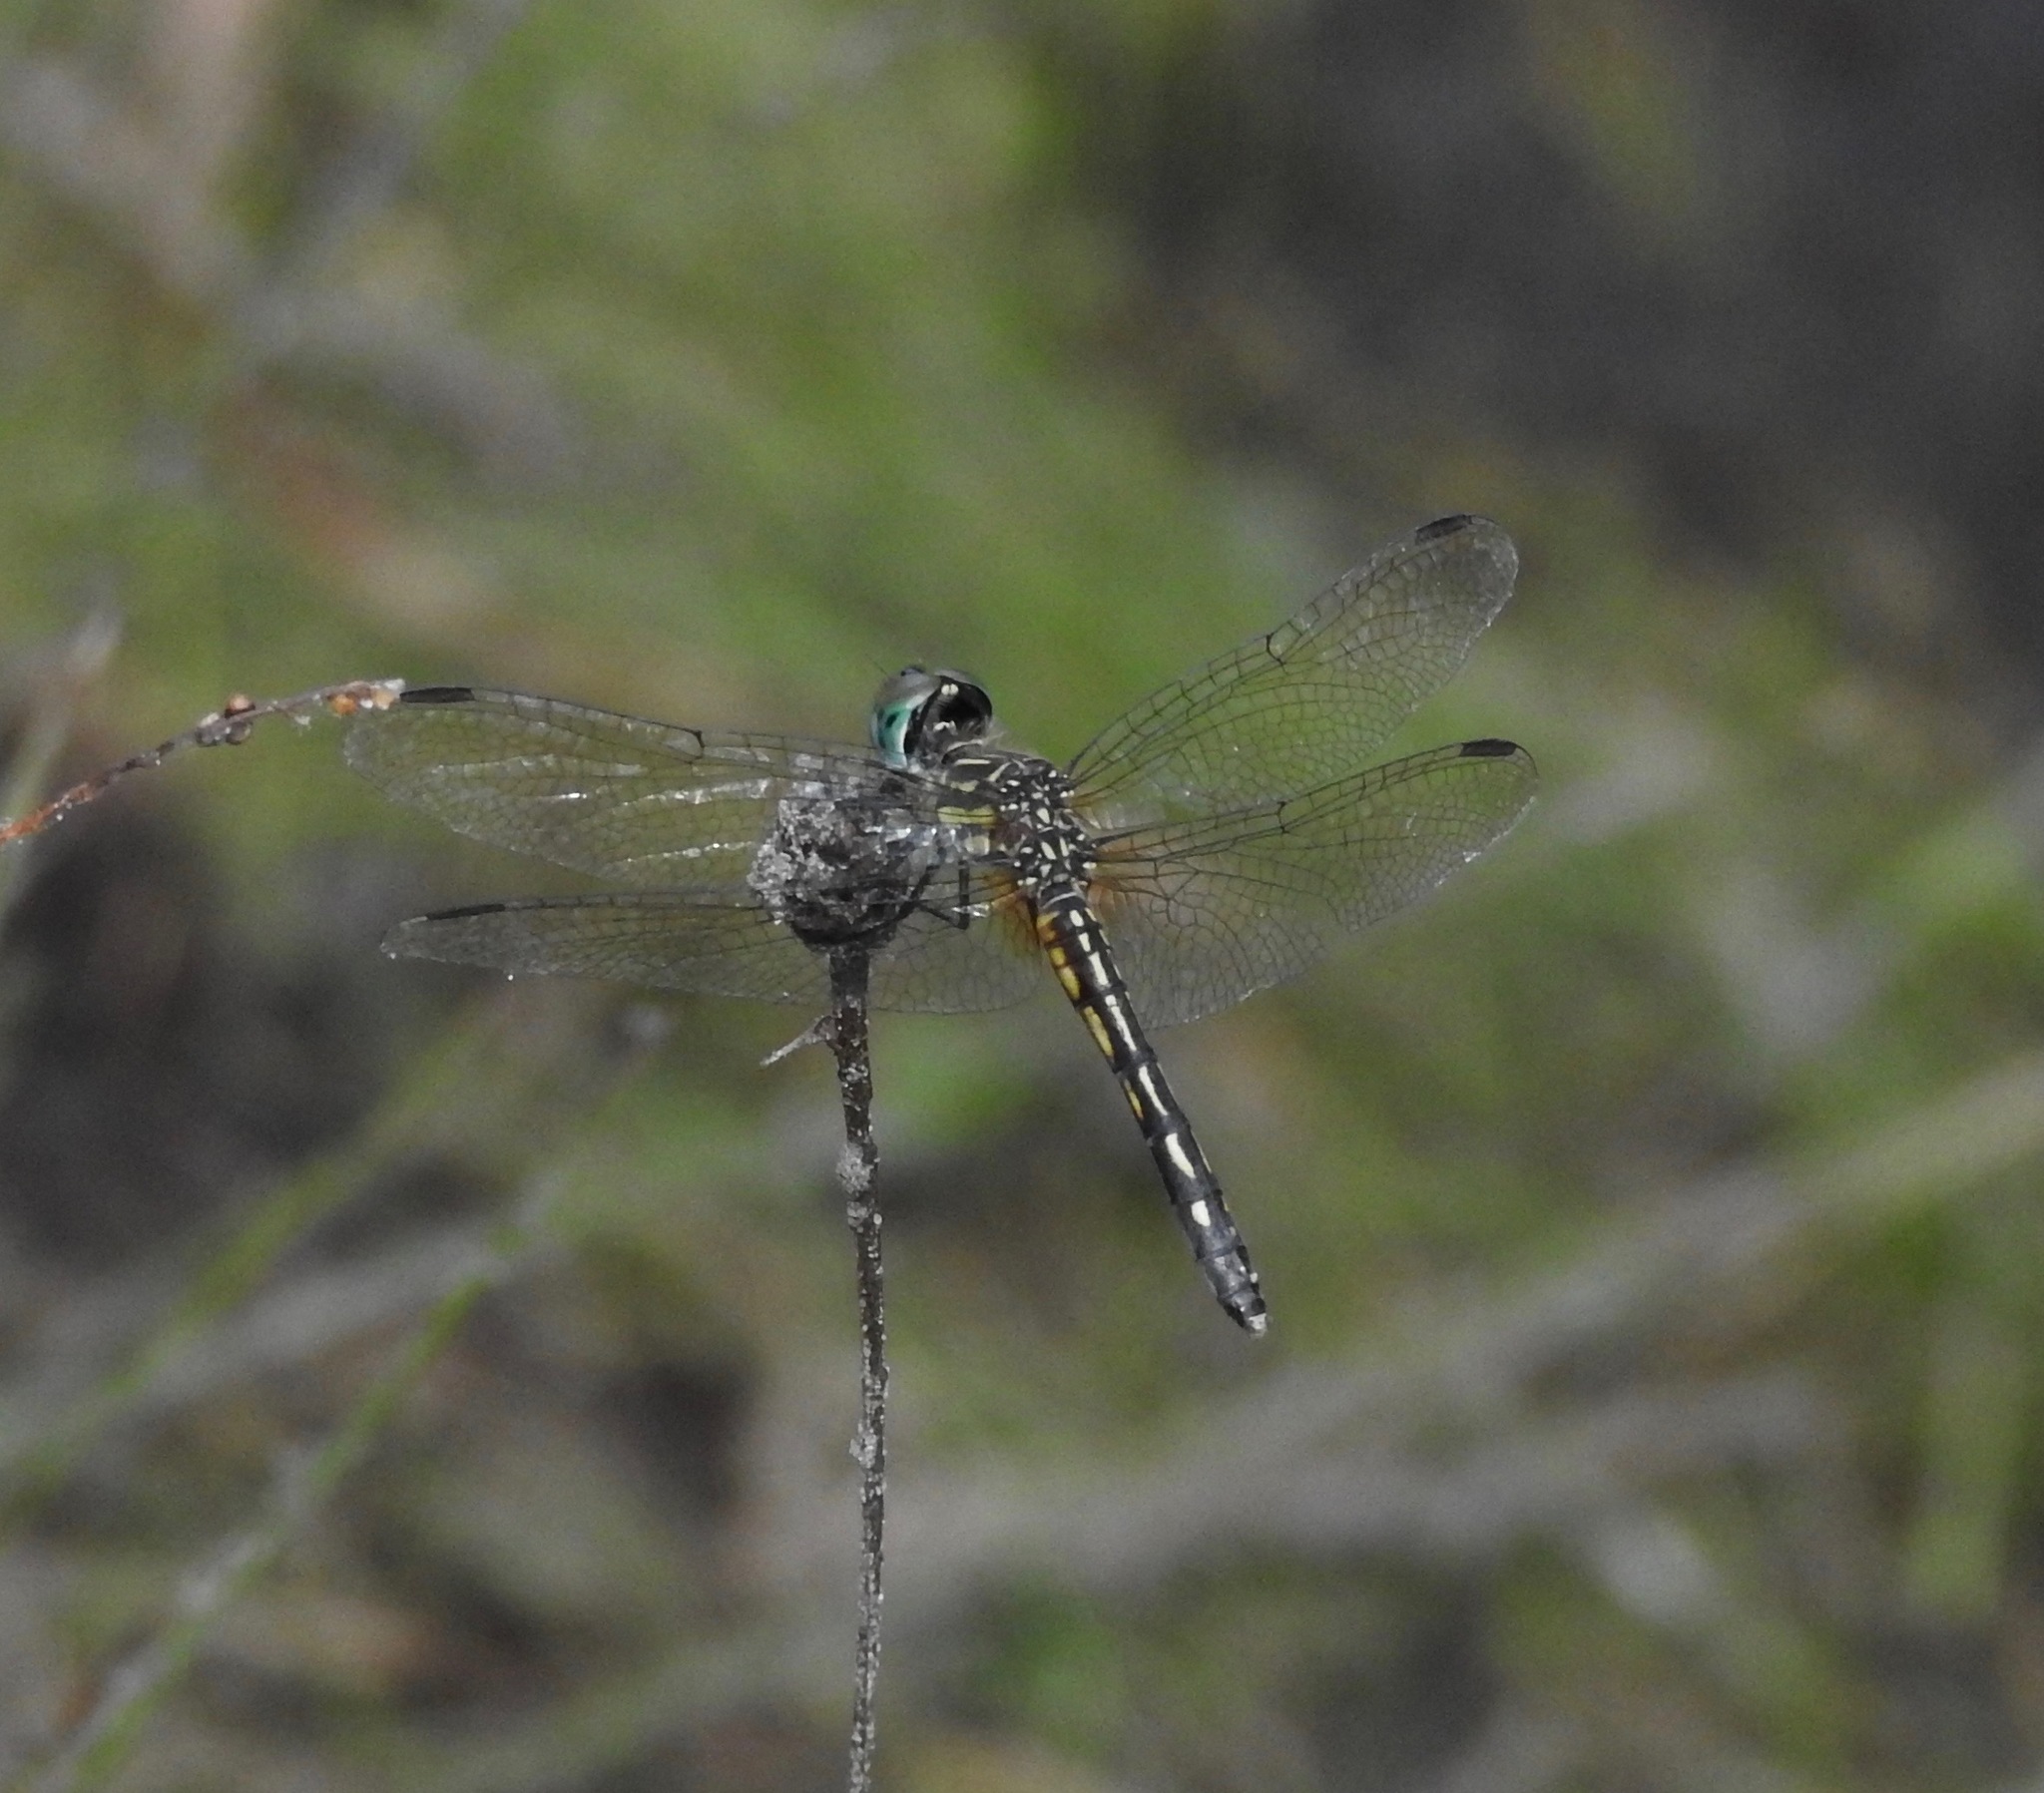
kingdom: Animalia
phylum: Arthropoda
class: Insecta
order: Odonata
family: Libellulidae
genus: Pachydiplax
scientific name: Pachydiplax longipennis
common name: Blue dasher
